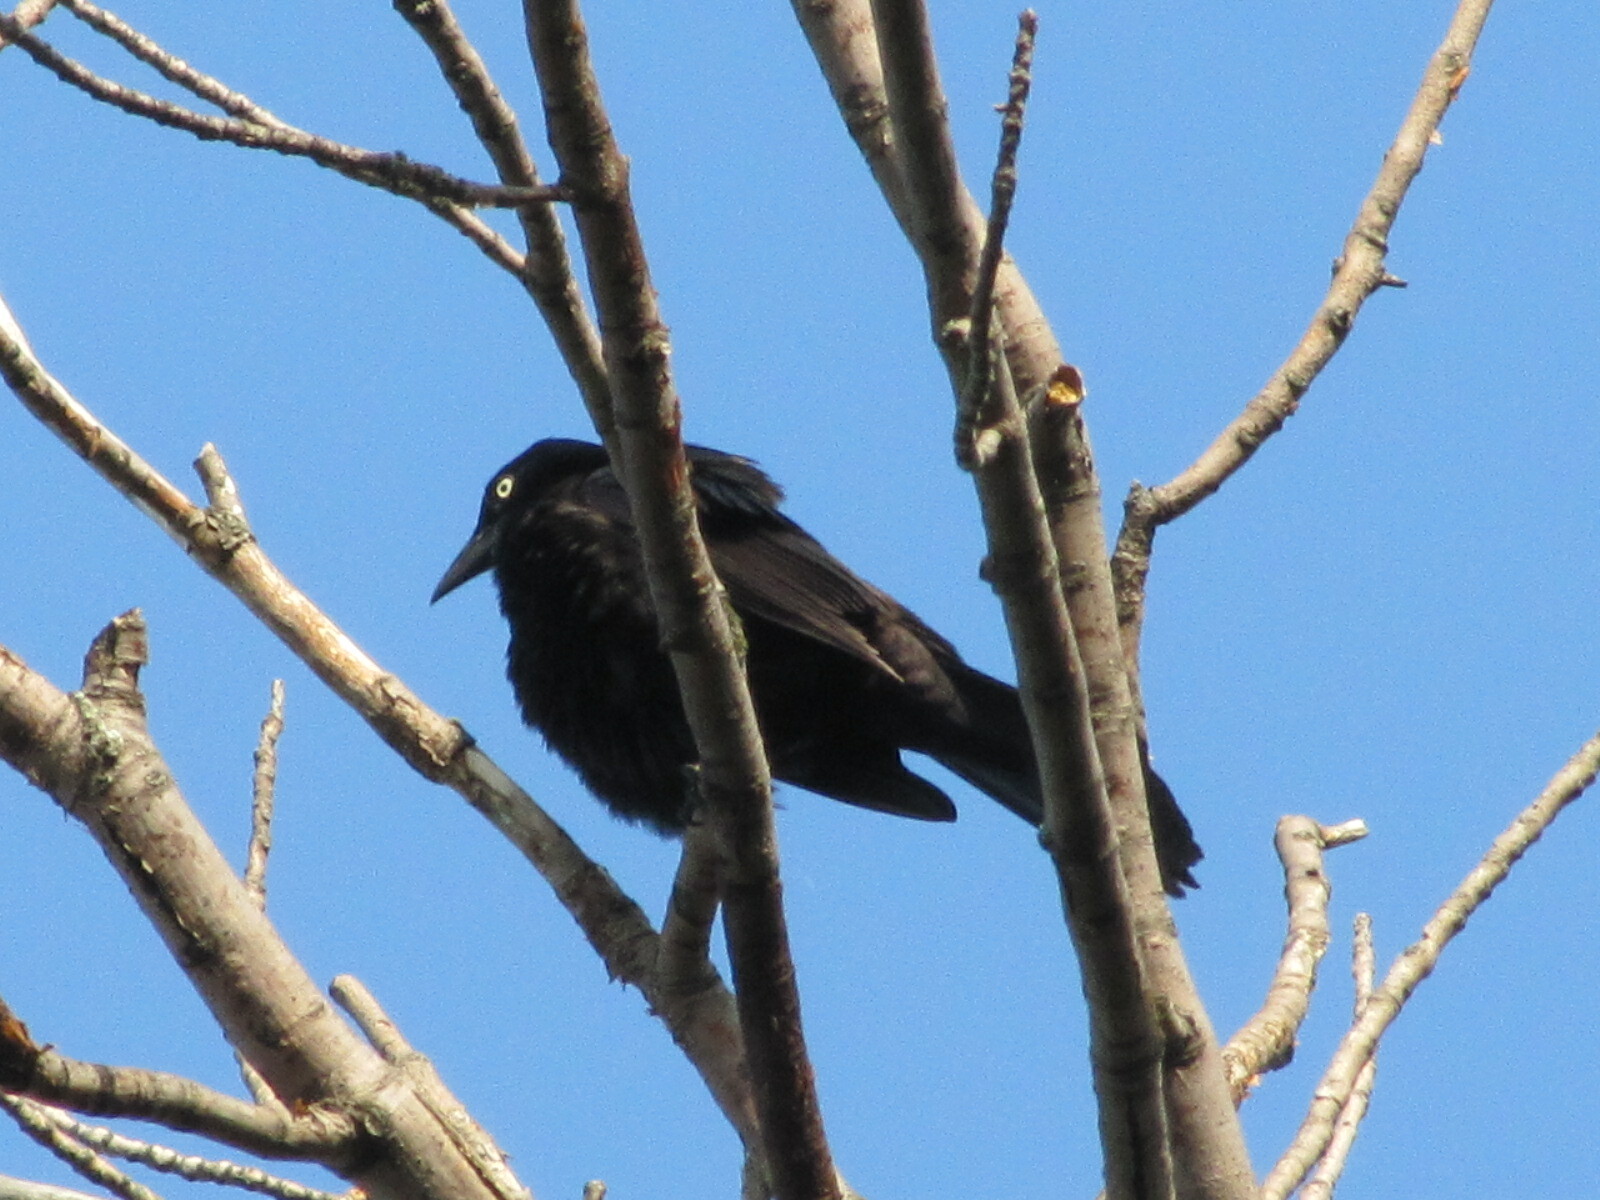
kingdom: Animalia
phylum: Chordata
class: Aves
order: Passeriformes
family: Icteridae
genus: Quiscalus
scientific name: Quiscalus quiscula
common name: Common grackle
